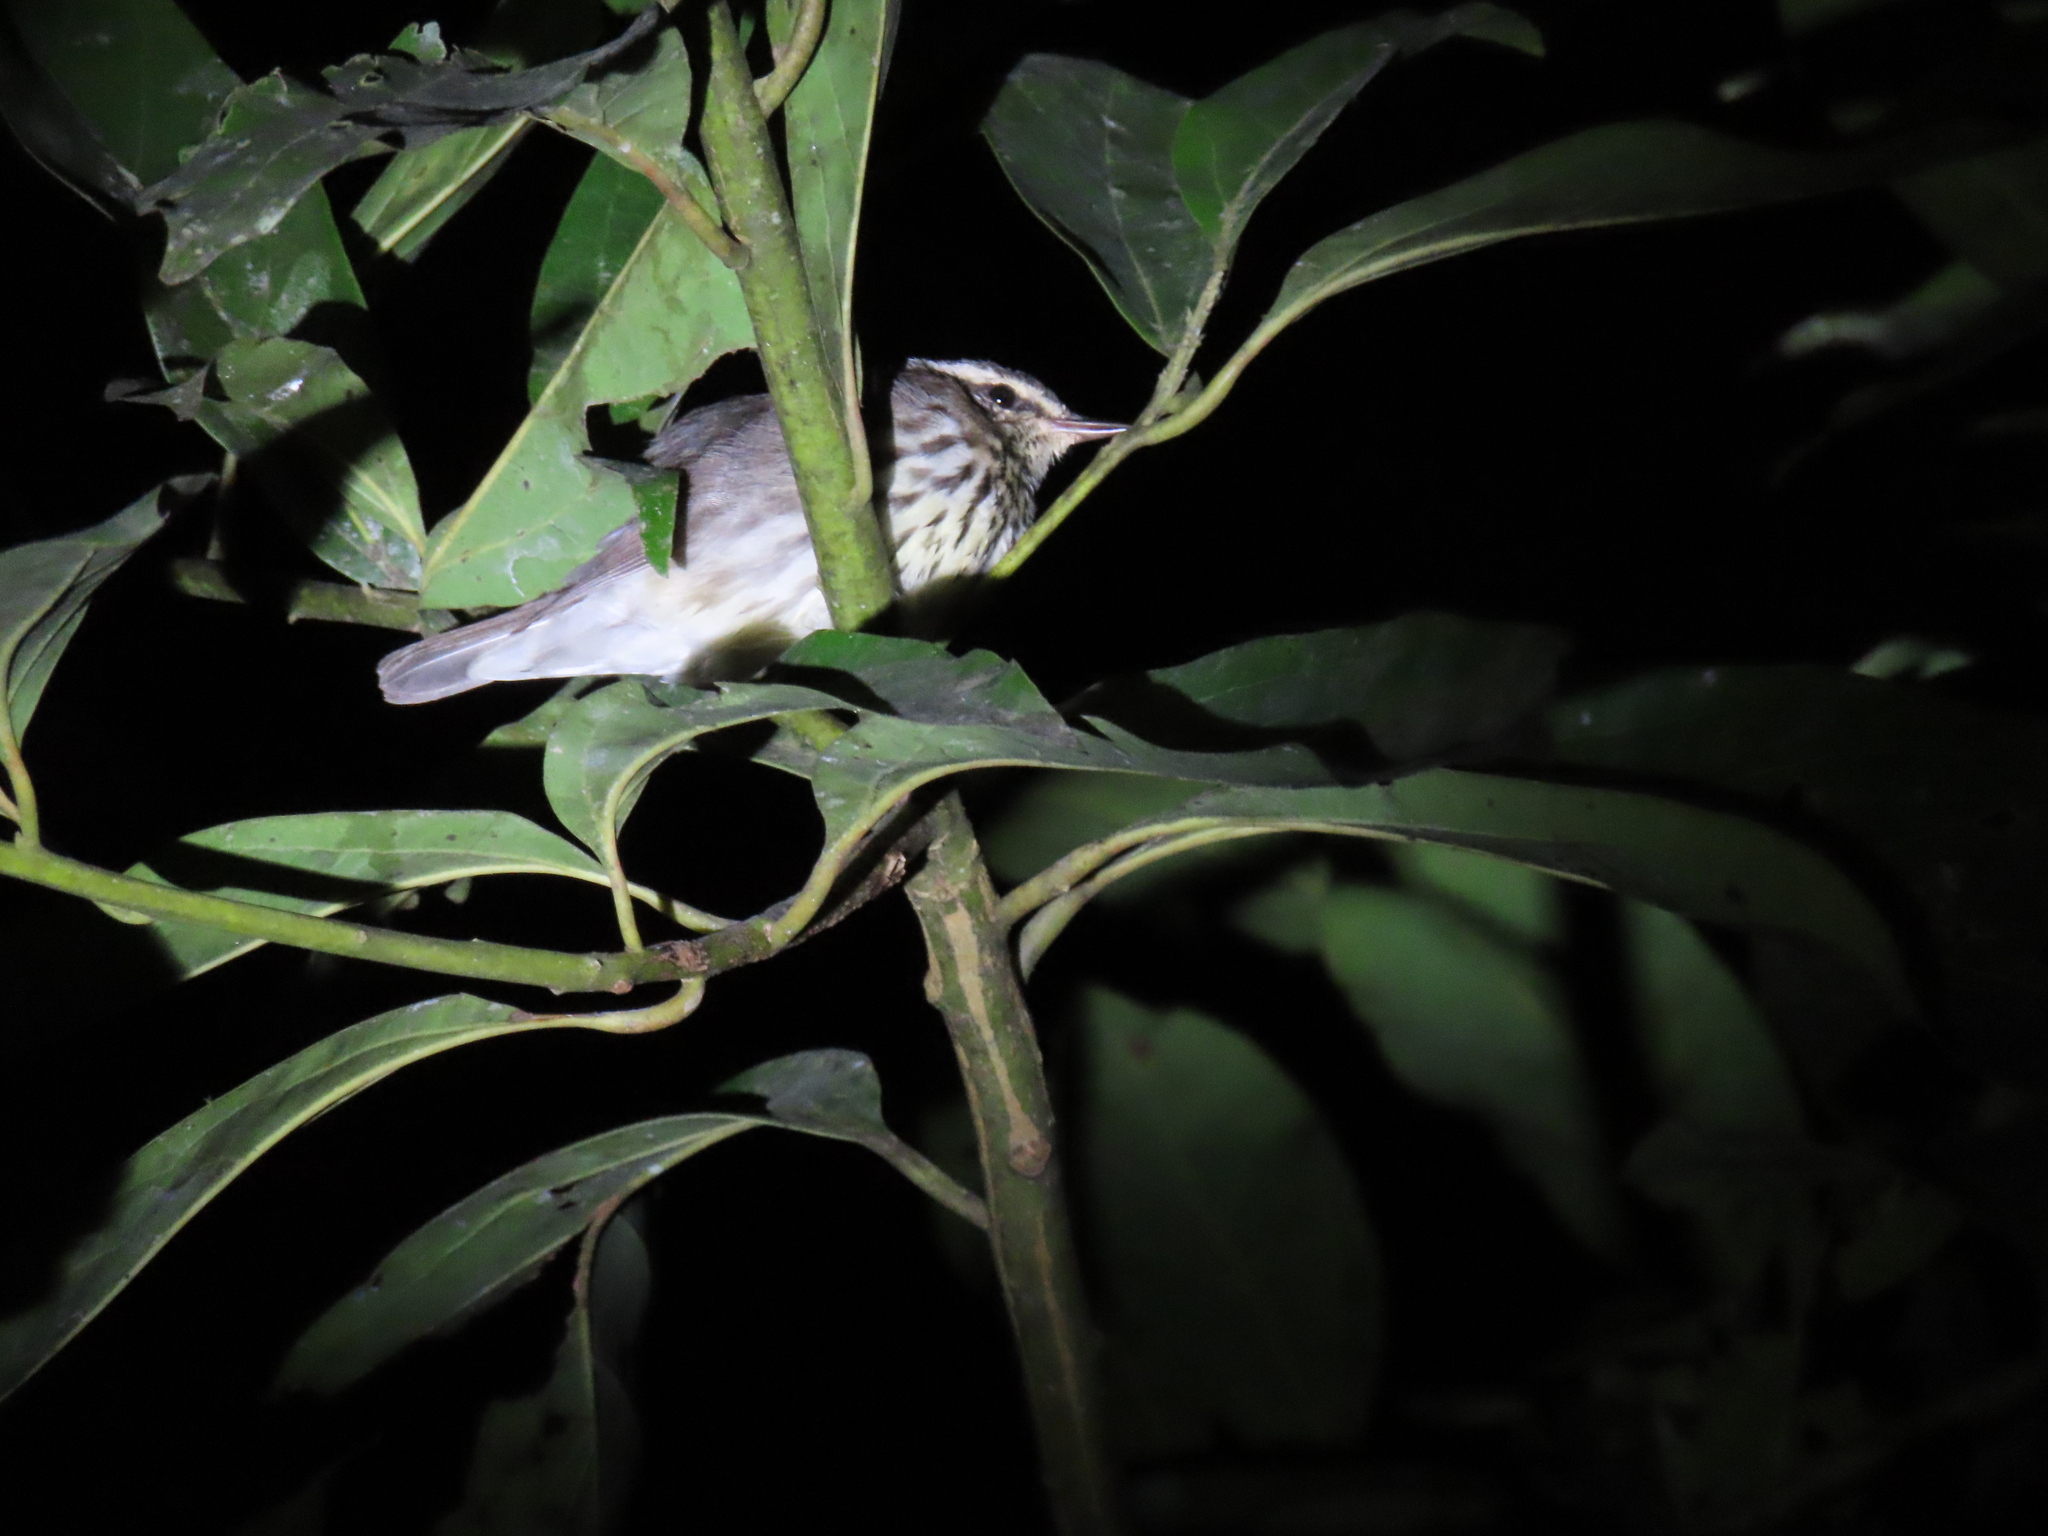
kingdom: Animalia
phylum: Chordata
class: Aves
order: Passeriformes
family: Parulidae
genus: Parkesia
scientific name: Parkesia motacilla
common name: Louisiana waterthrush
